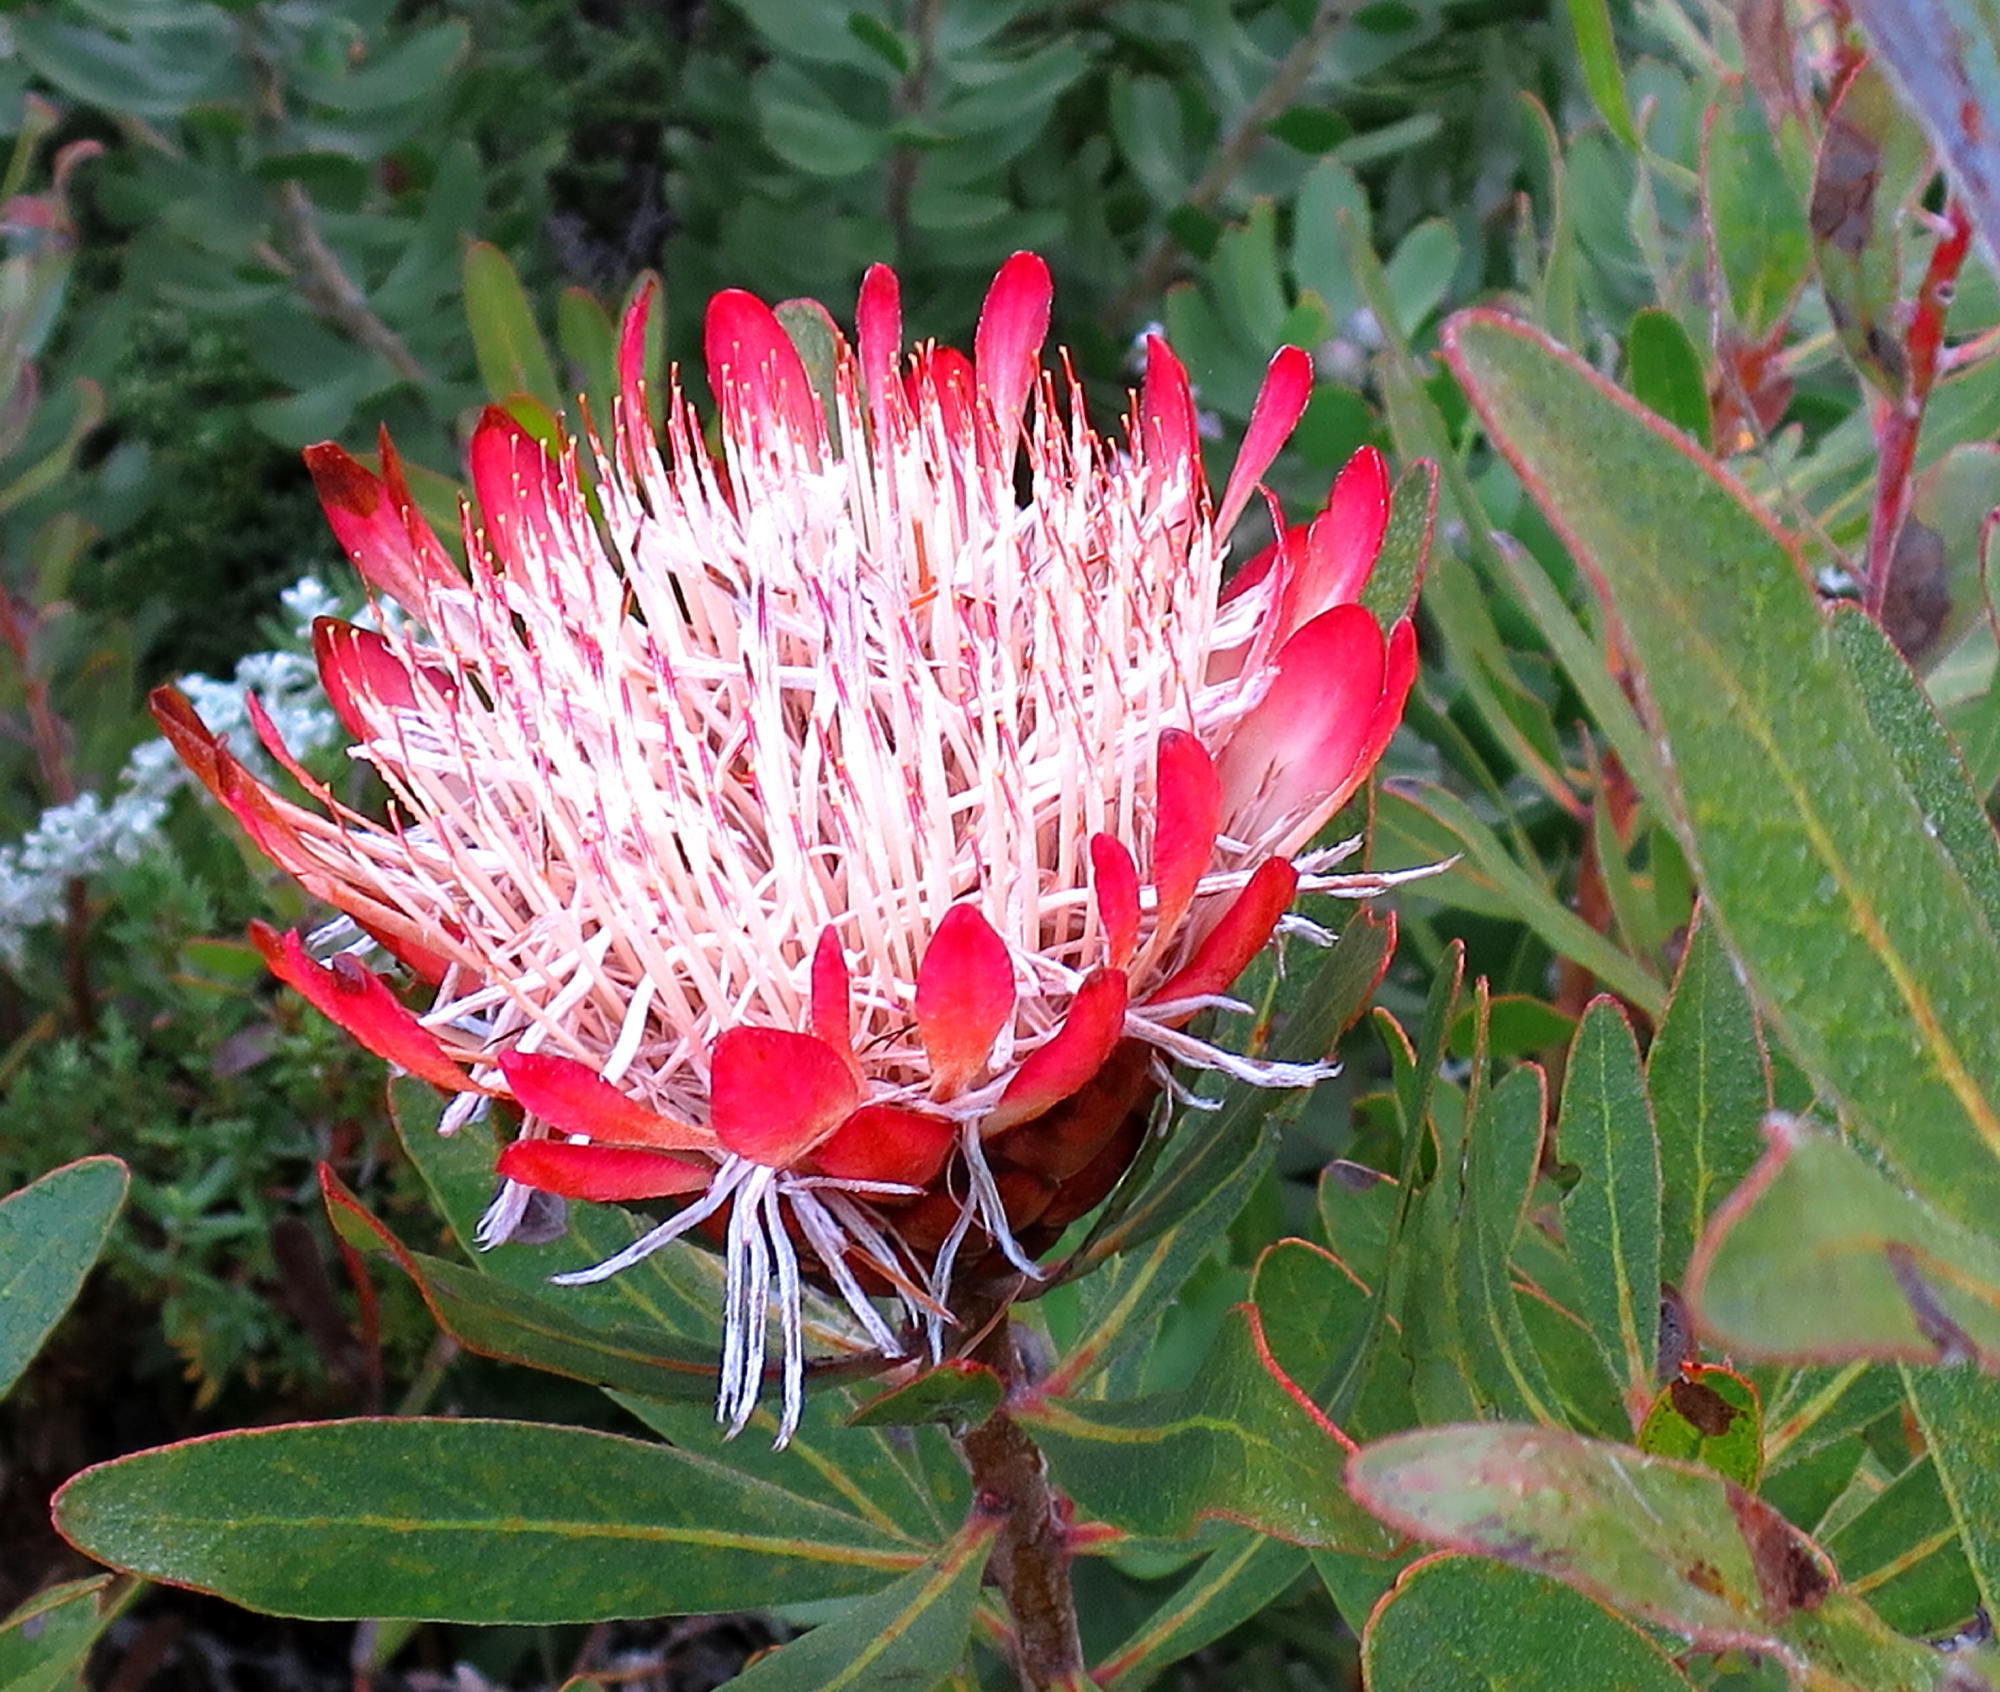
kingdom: Plantae
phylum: Tracheophyta
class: Magnoliopsida
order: Proteales
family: Proteaceae
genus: Protea
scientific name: Protea susannae
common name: Foetid-leaf sugarbush
